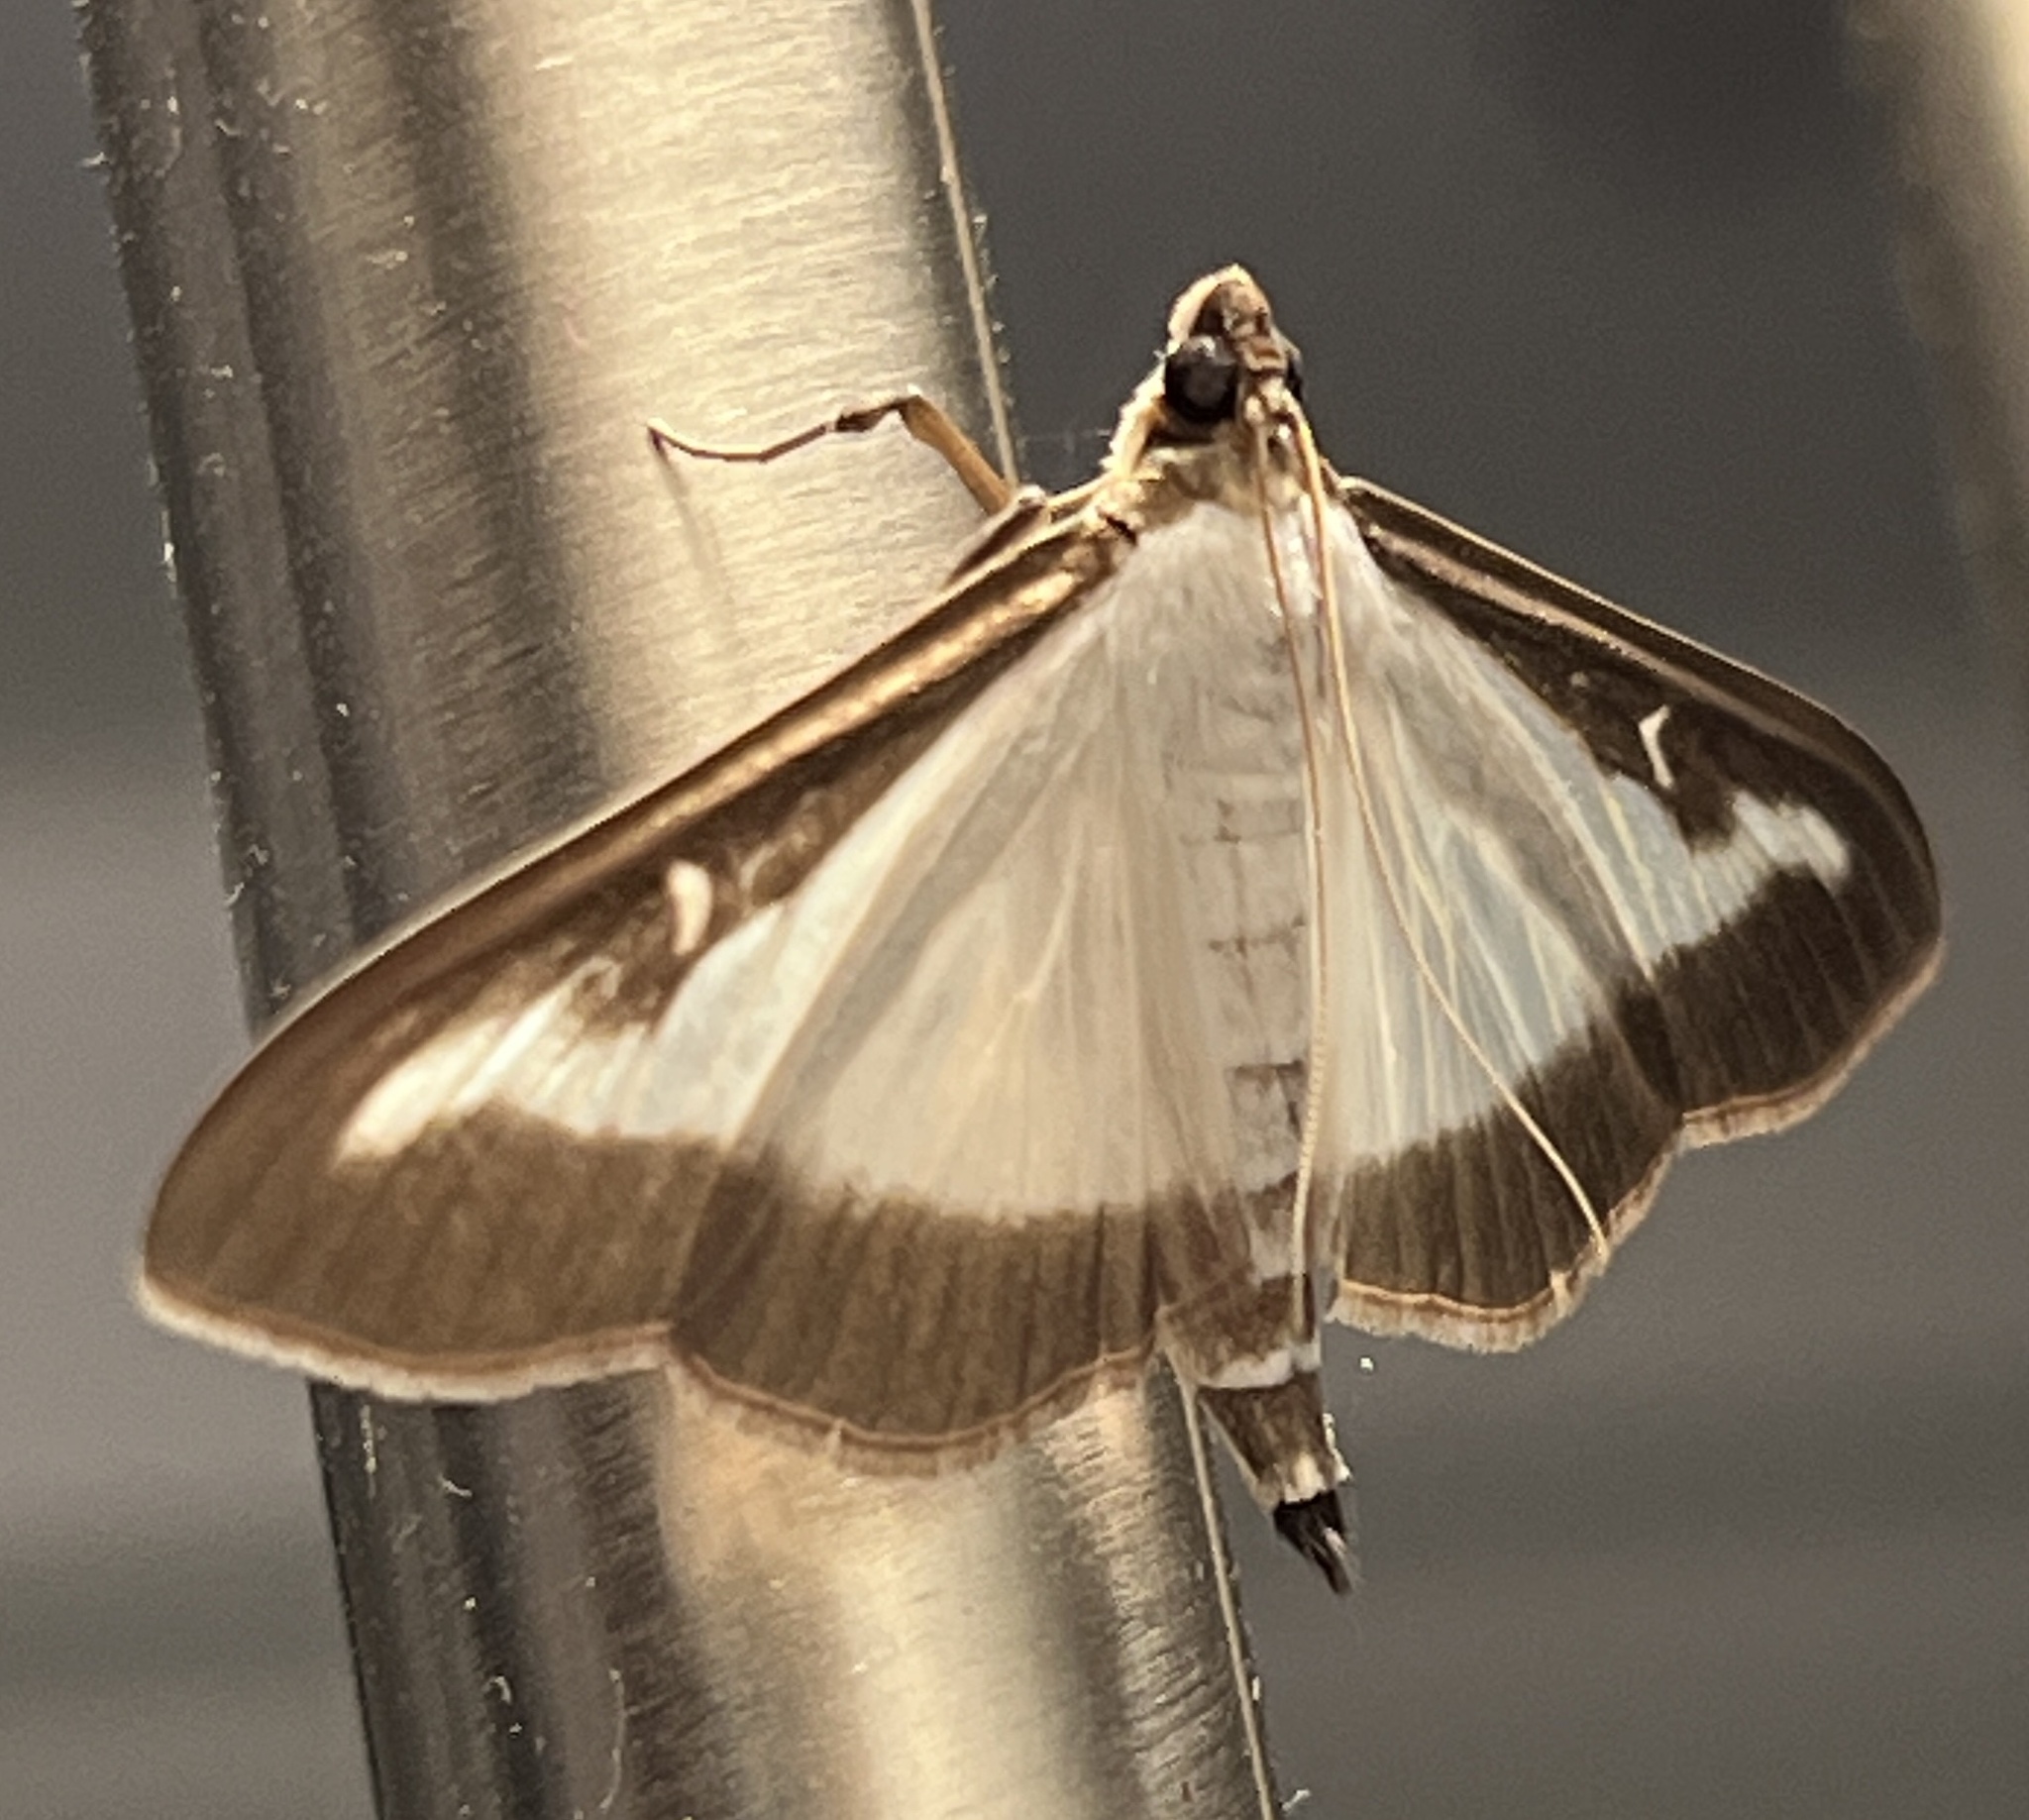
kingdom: Animalia
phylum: Arthropoda
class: Insecta
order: Lepidoptera
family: Crambidae
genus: Cydalima
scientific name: Cydalima perspectalis
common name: Box tree moth
